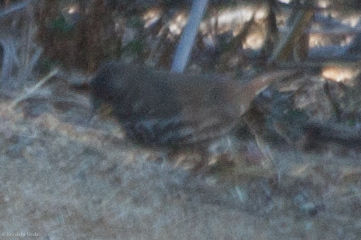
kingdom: Animalia
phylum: Chordata
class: Aves
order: Passeriformes
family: Passerellidae
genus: Passerella
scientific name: Passerella iliaca
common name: Fox sparrow
